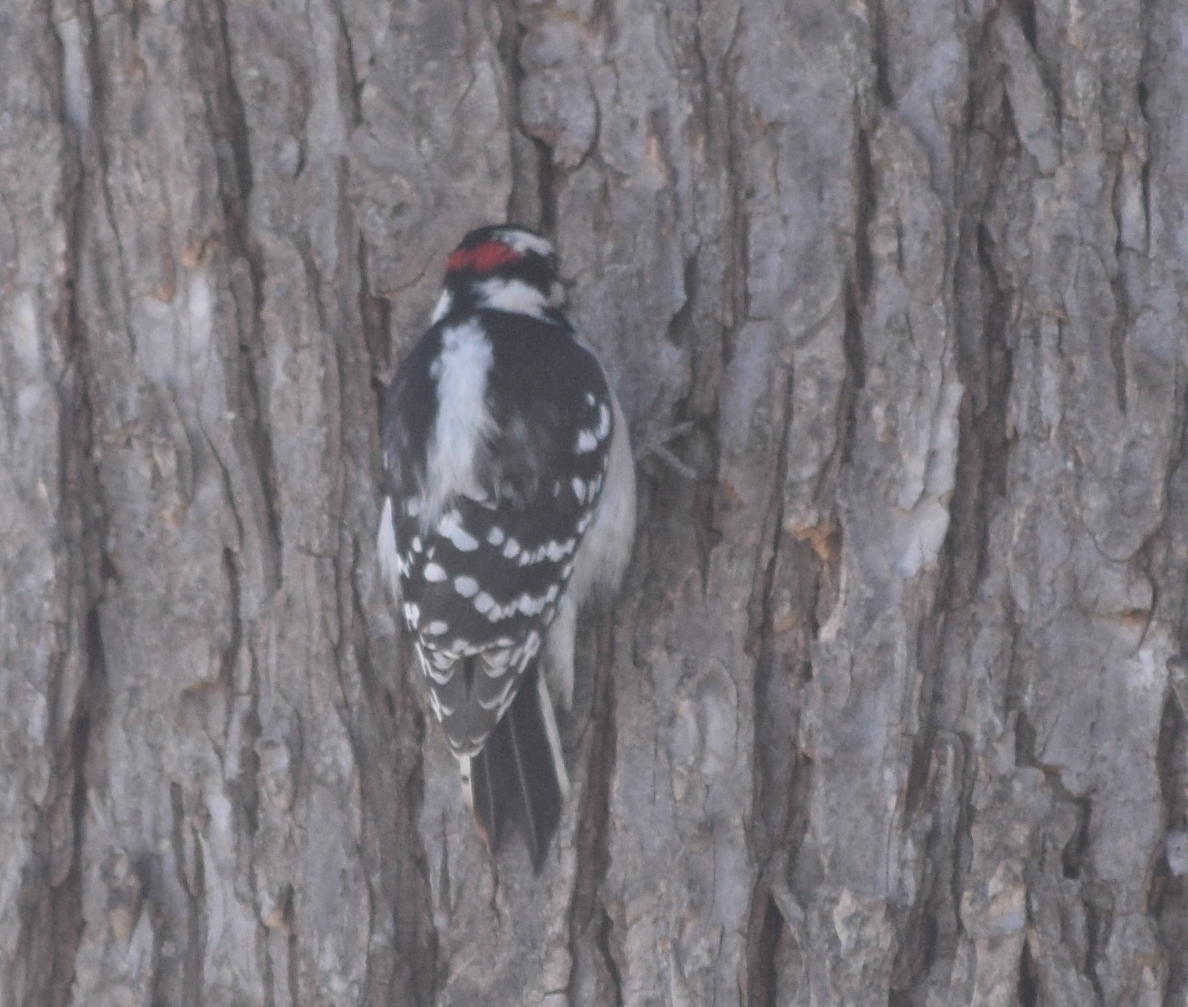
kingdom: Animalia
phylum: Chordata
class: Aves
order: Piciformes
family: Picidae
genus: Dryobates
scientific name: Dryobates pubescens
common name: Downy woodpecker
